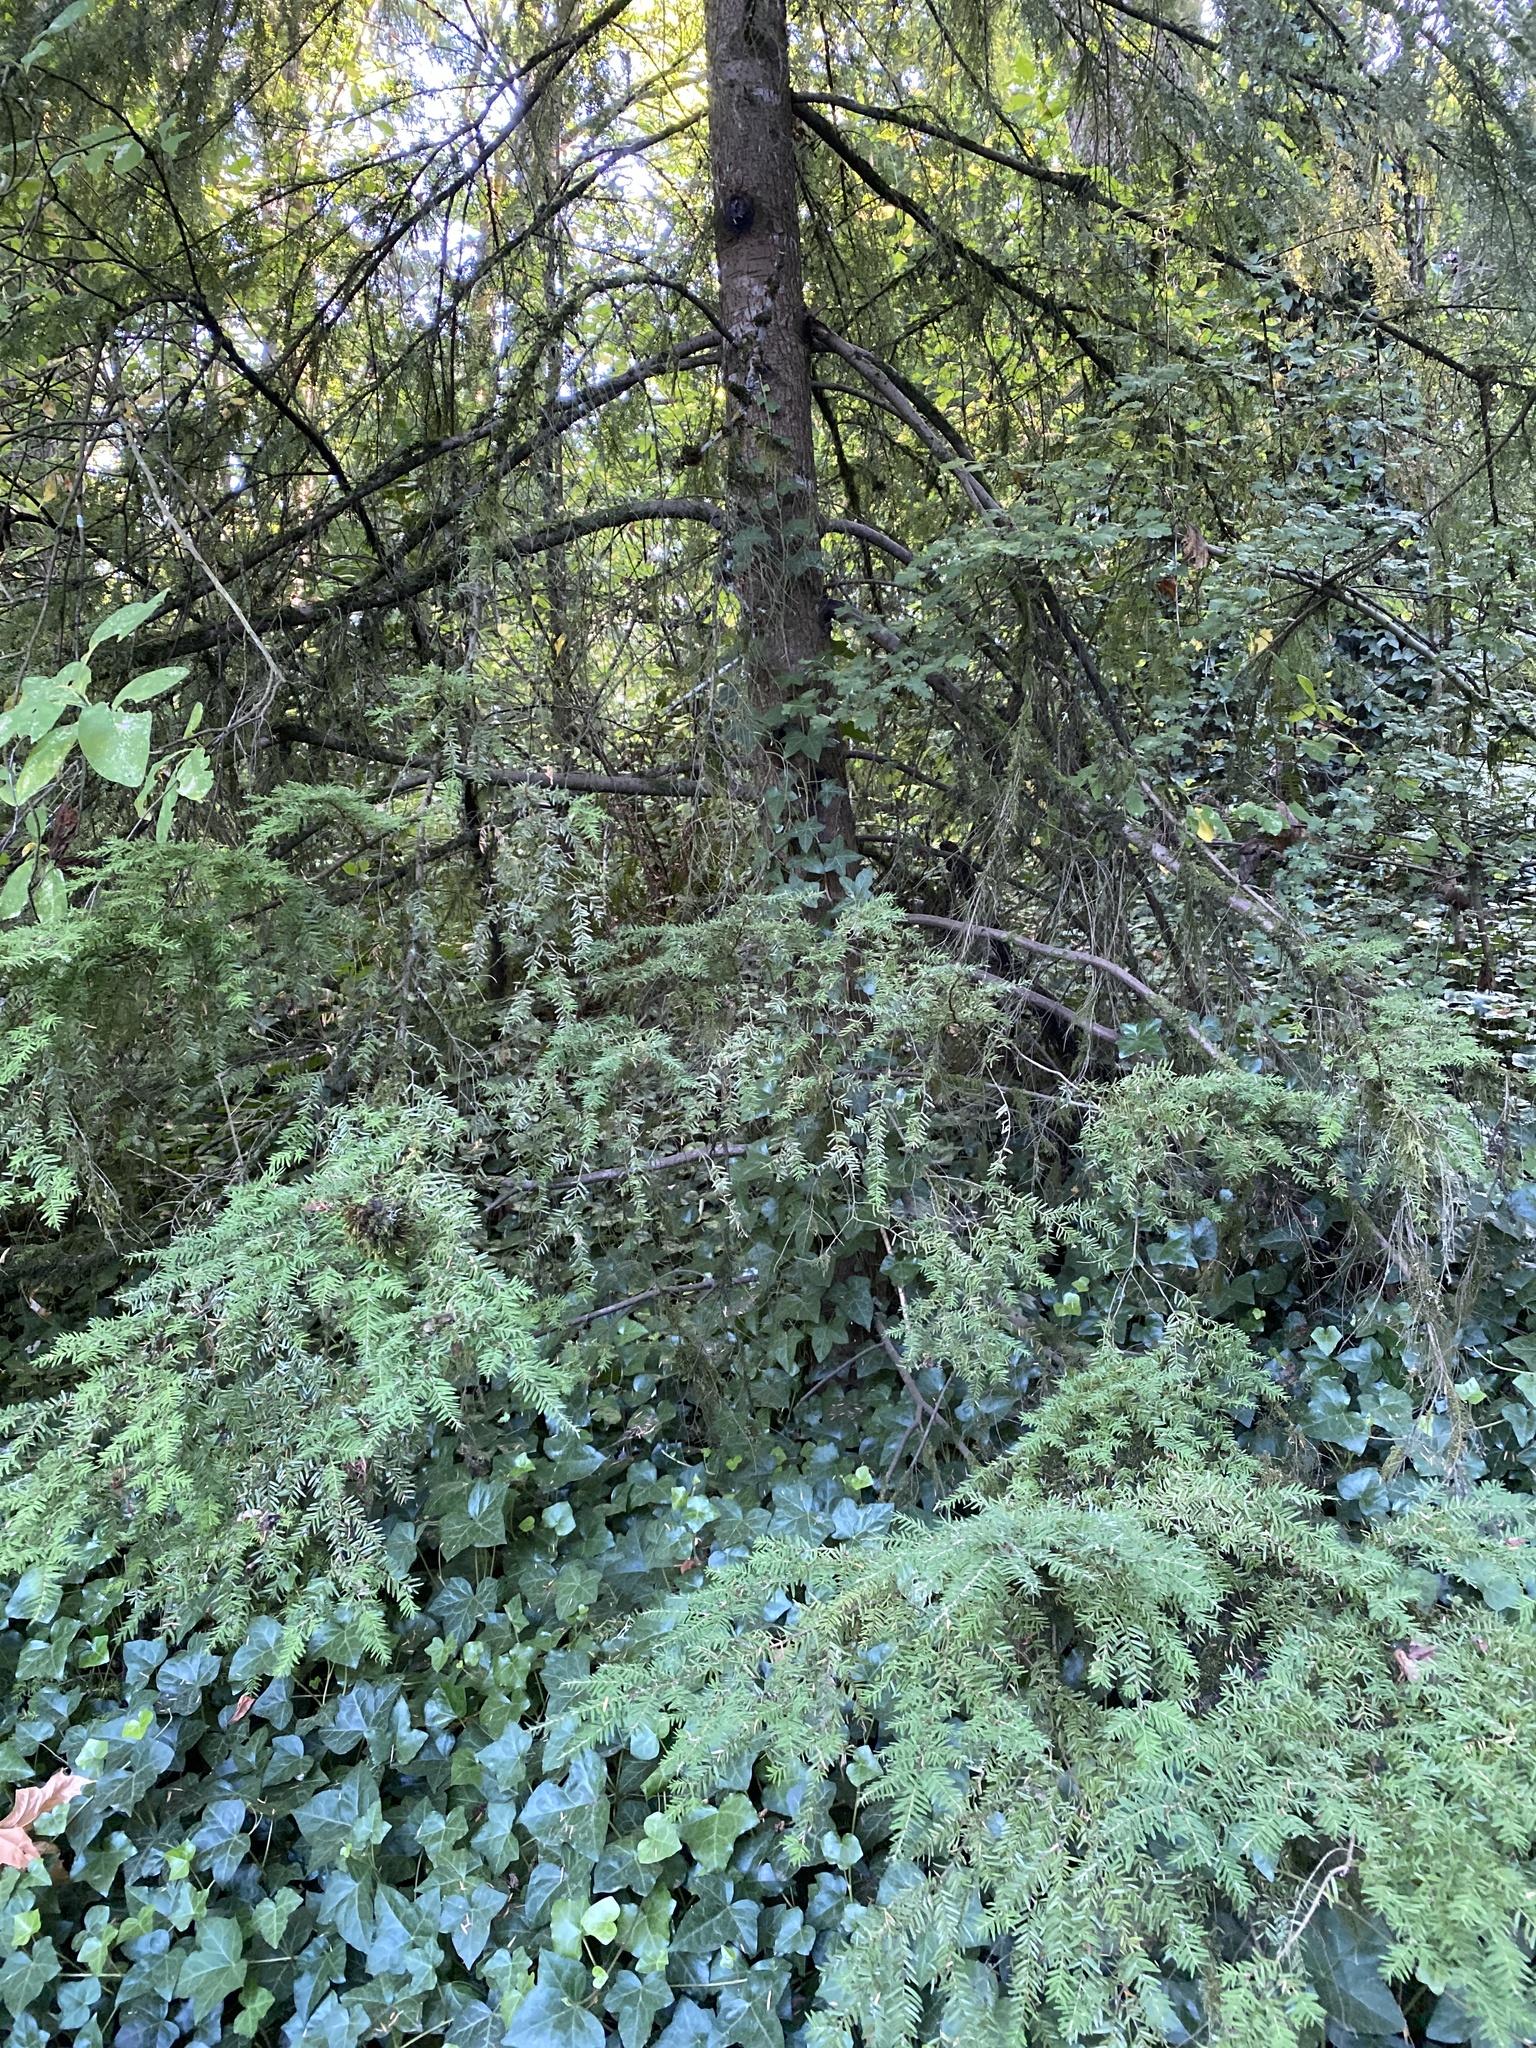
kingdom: Plantae
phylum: Tracheophyta
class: Pinopsida
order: Pinales
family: Pinaceae
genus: Tsuga
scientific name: Tsuga heterophylla
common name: Western hemlock
